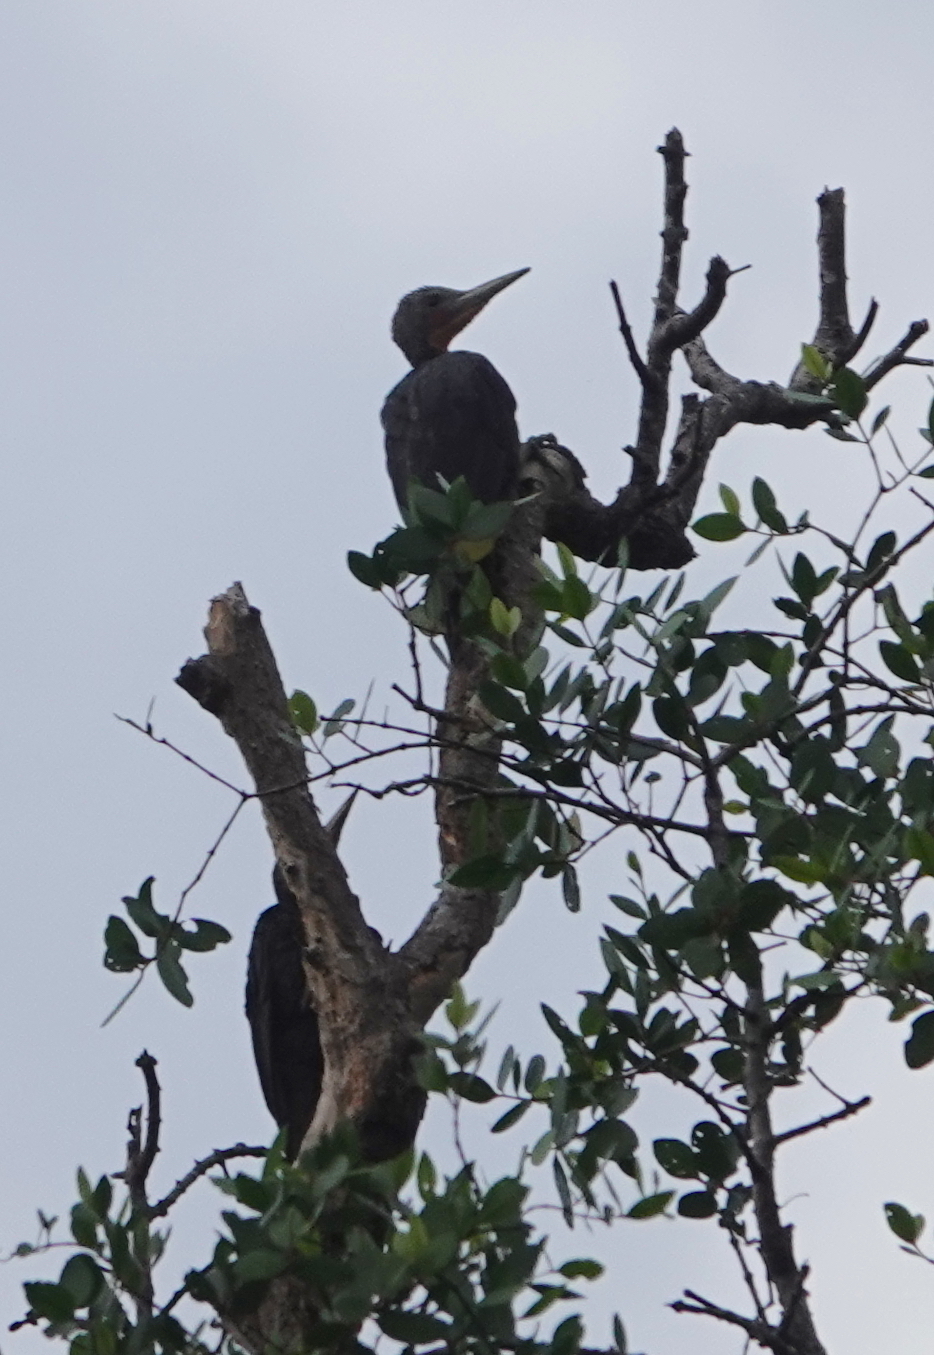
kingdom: Animalia
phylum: Chordata
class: Aves
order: Piciformes
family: Picidae
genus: Mulleripicus
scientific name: Mulleripicus pulverulentus
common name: Great slaty woodpecker
